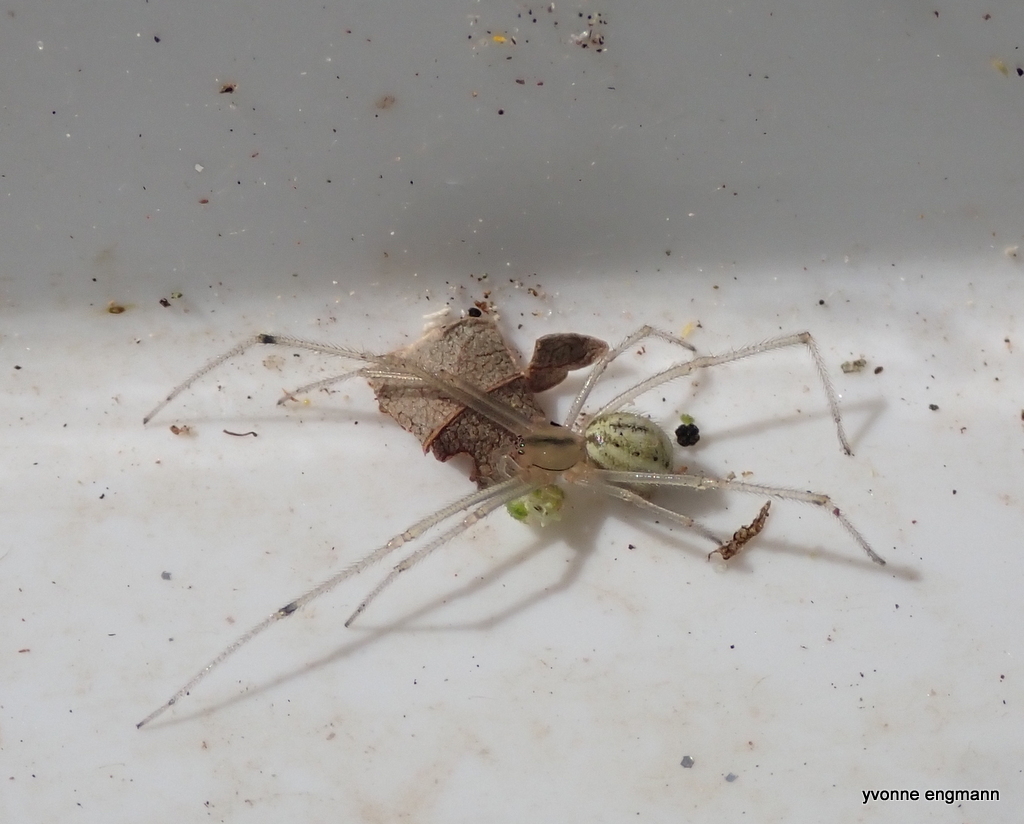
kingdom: Animalia
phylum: Arthropoda
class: Arachnida
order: Araneae
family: Theridiidae
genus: Enoplognatha
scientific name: Enoplognatha ovata
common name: Common candy-striped spider
